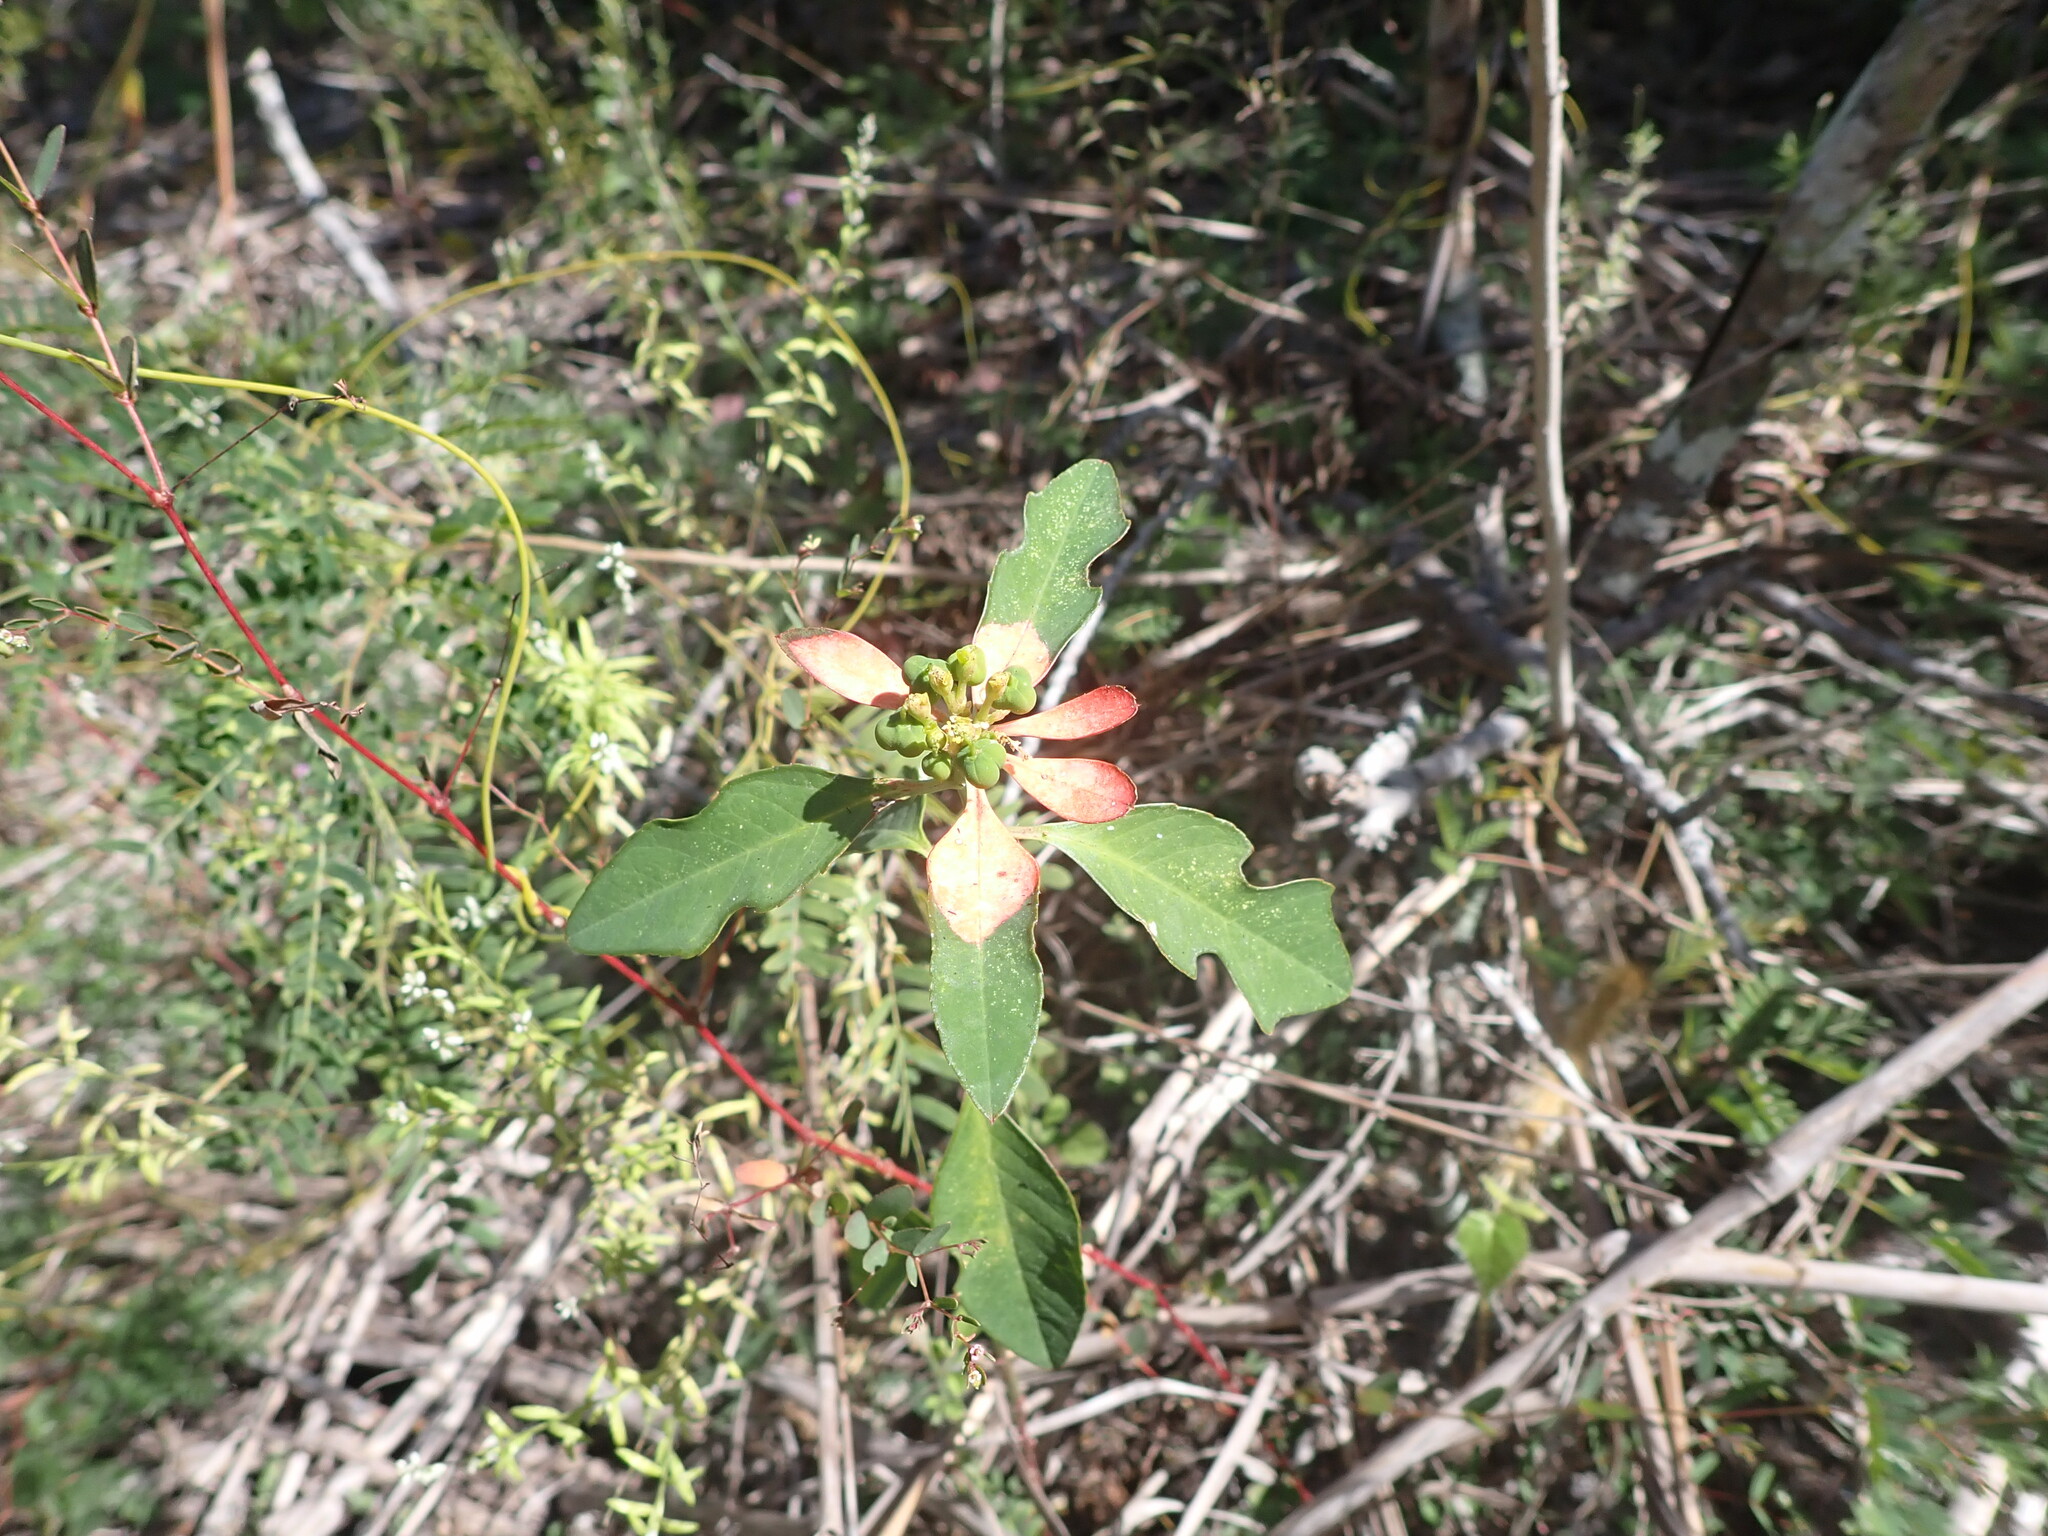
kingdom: Plantae
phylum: Tracheophyta
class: Magnoliopsida
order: Malpighiales
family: Euphorbiaceae
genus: Euphorbia
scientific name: Euphorbia heterophylla
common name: Mexican fireplant
